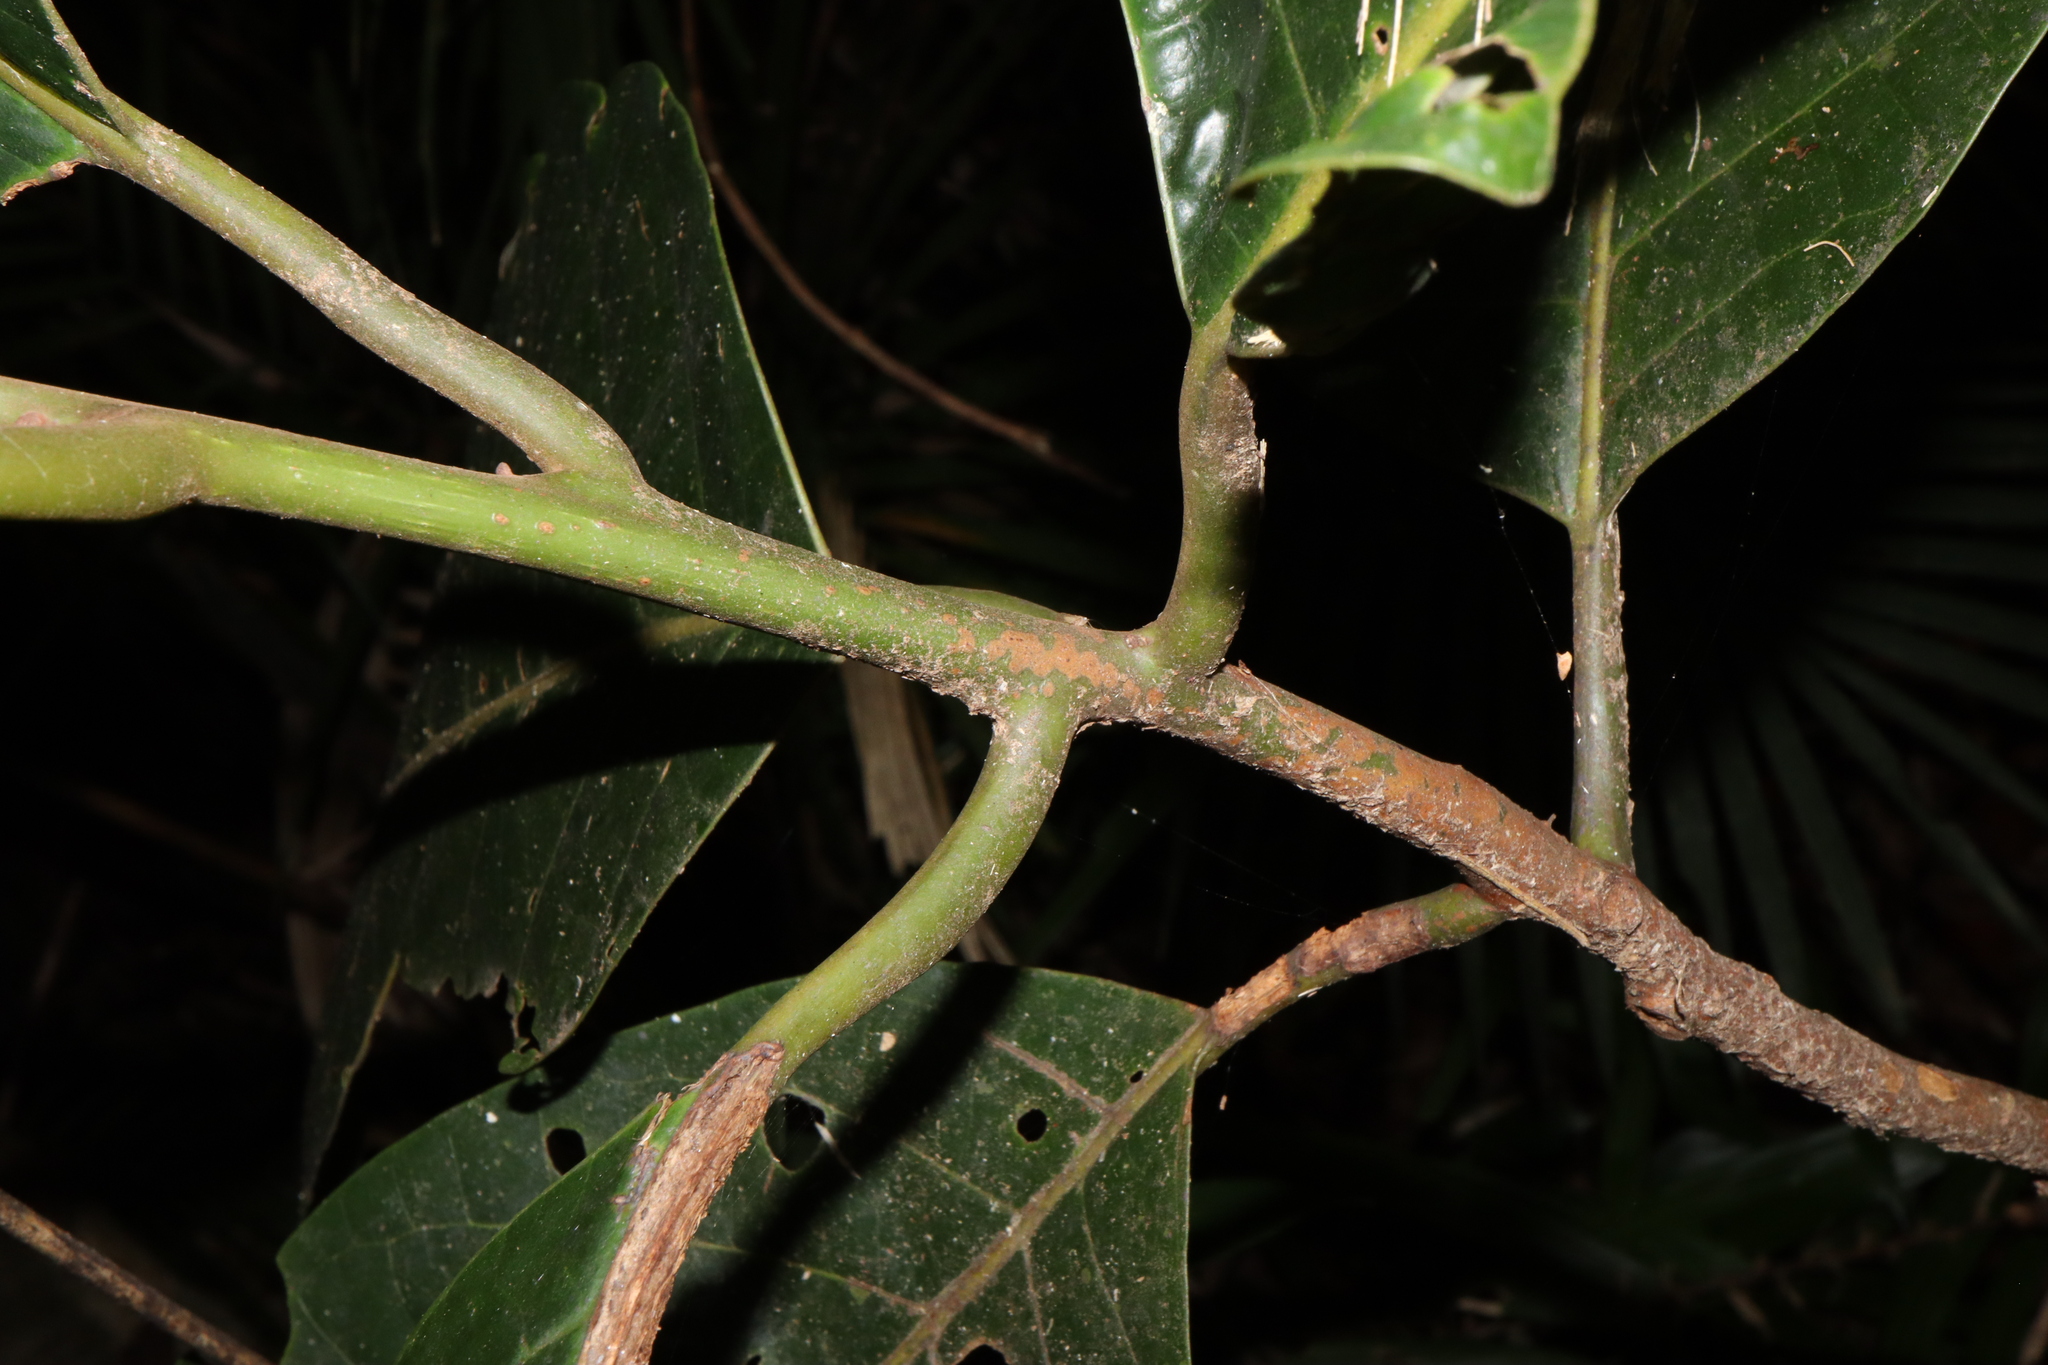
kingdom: Plantae
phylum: Tracheophyta
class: Magnoliopsida
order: Laurales
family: Lauraceae
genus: Litsea
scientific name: Litsea bindoniana
